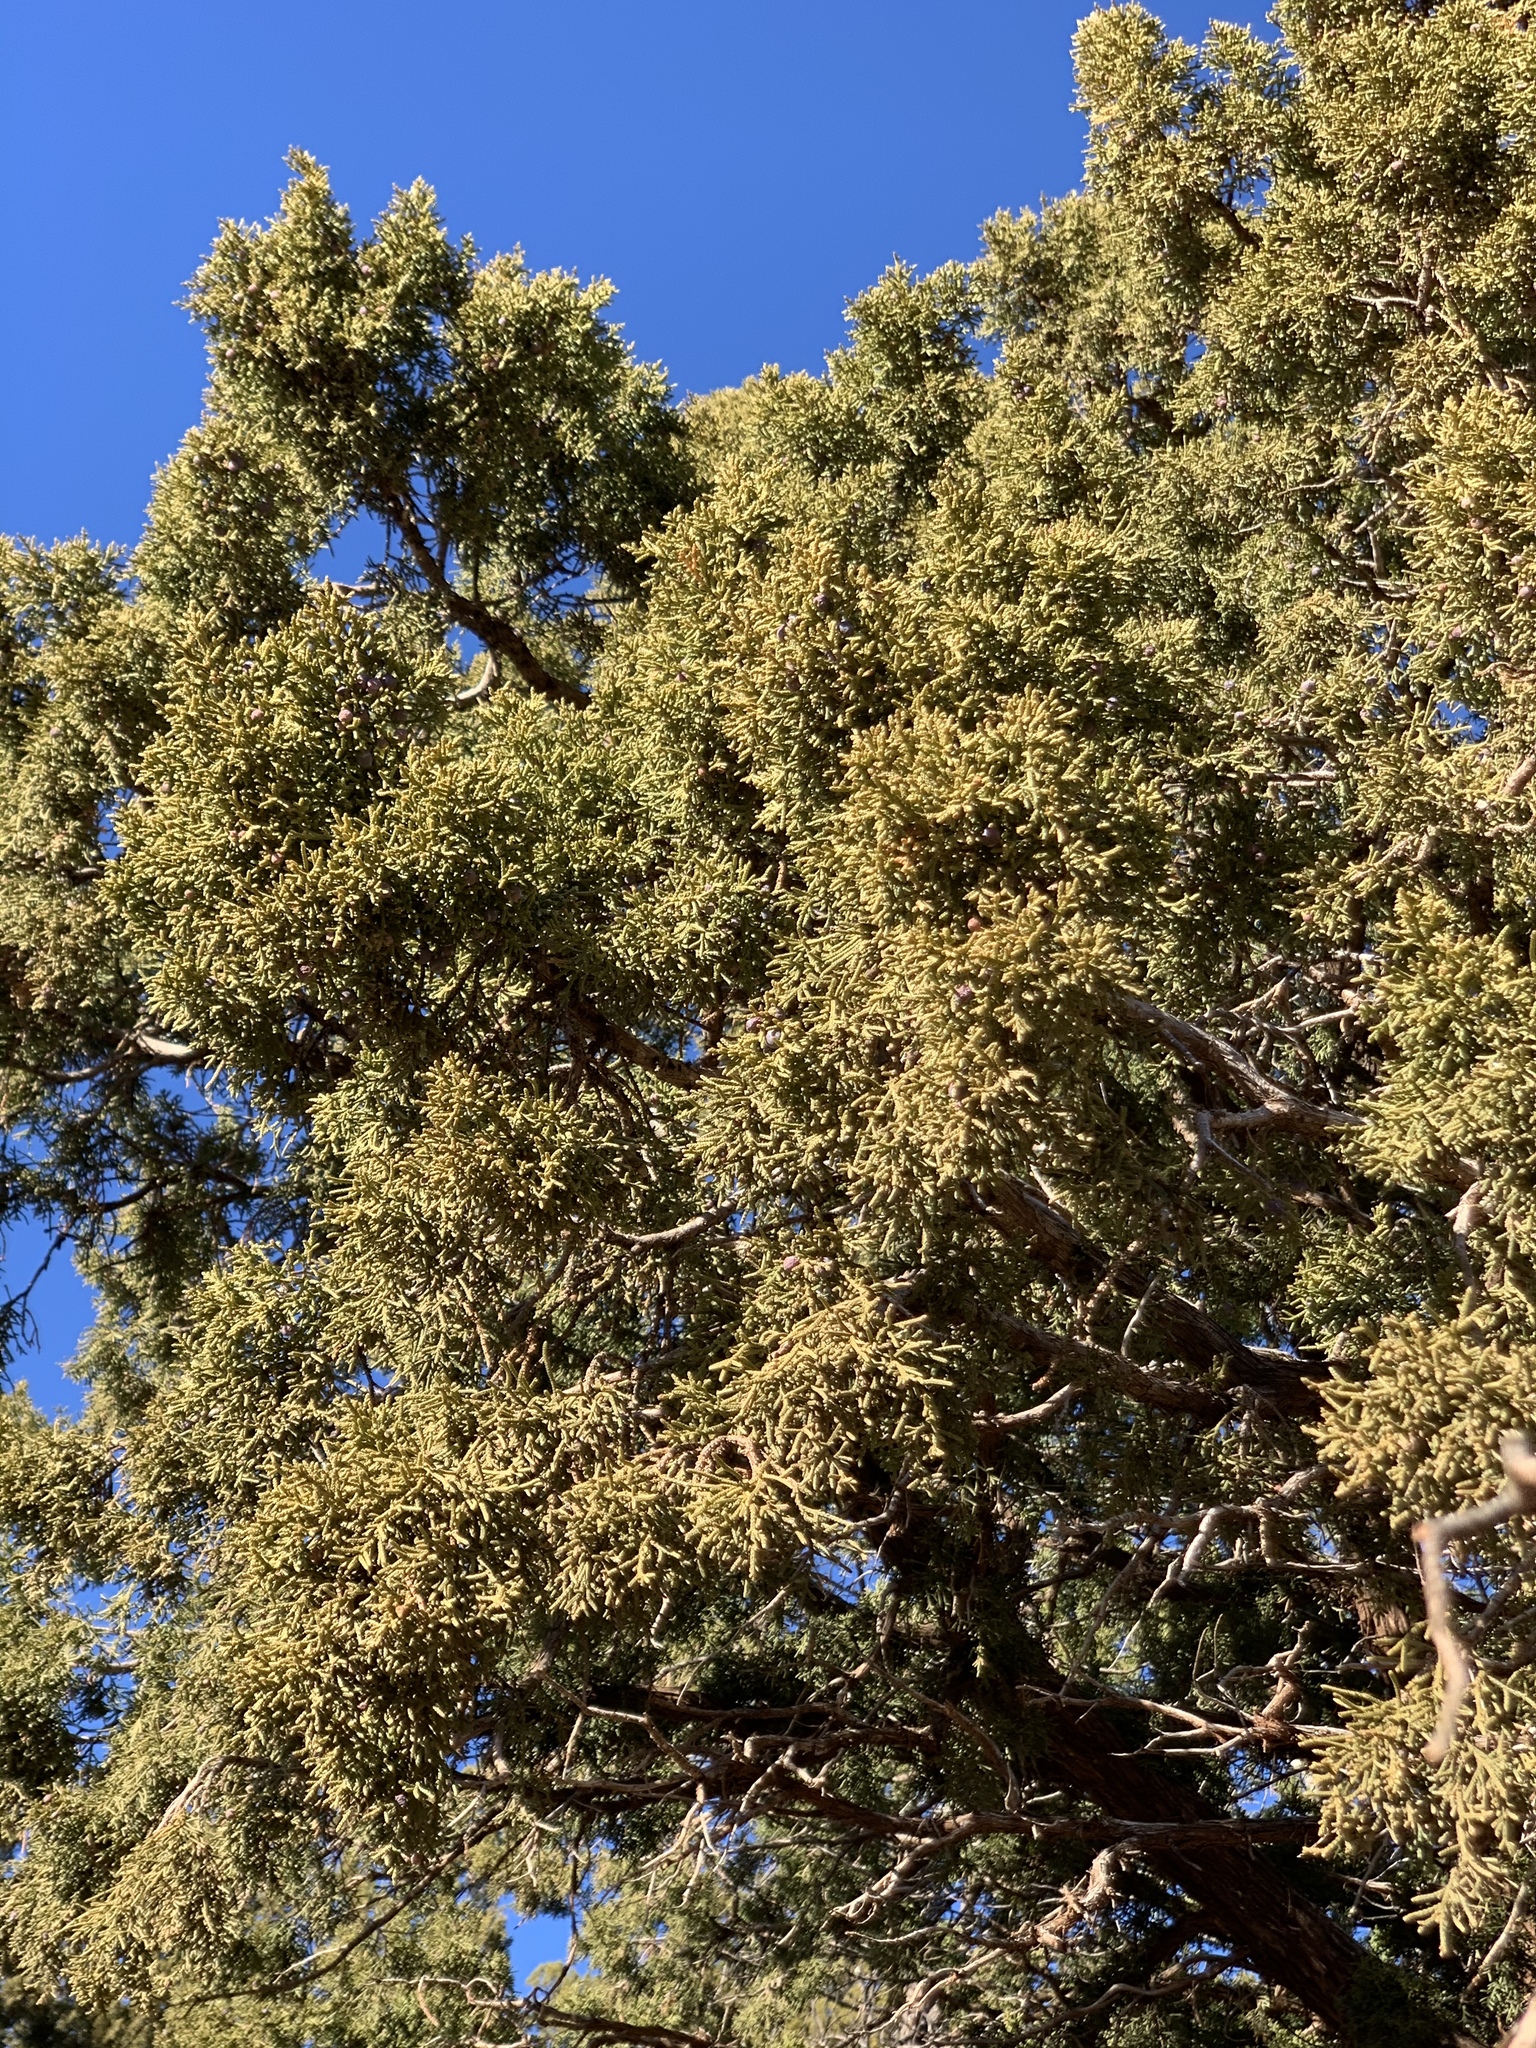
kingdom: Plantae
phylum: Tracheophyta
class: Pinopsida
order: Pinales
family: Cupressaceae
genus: Juniperus
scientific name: Juniperus monosperma
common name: One-seed juniper
